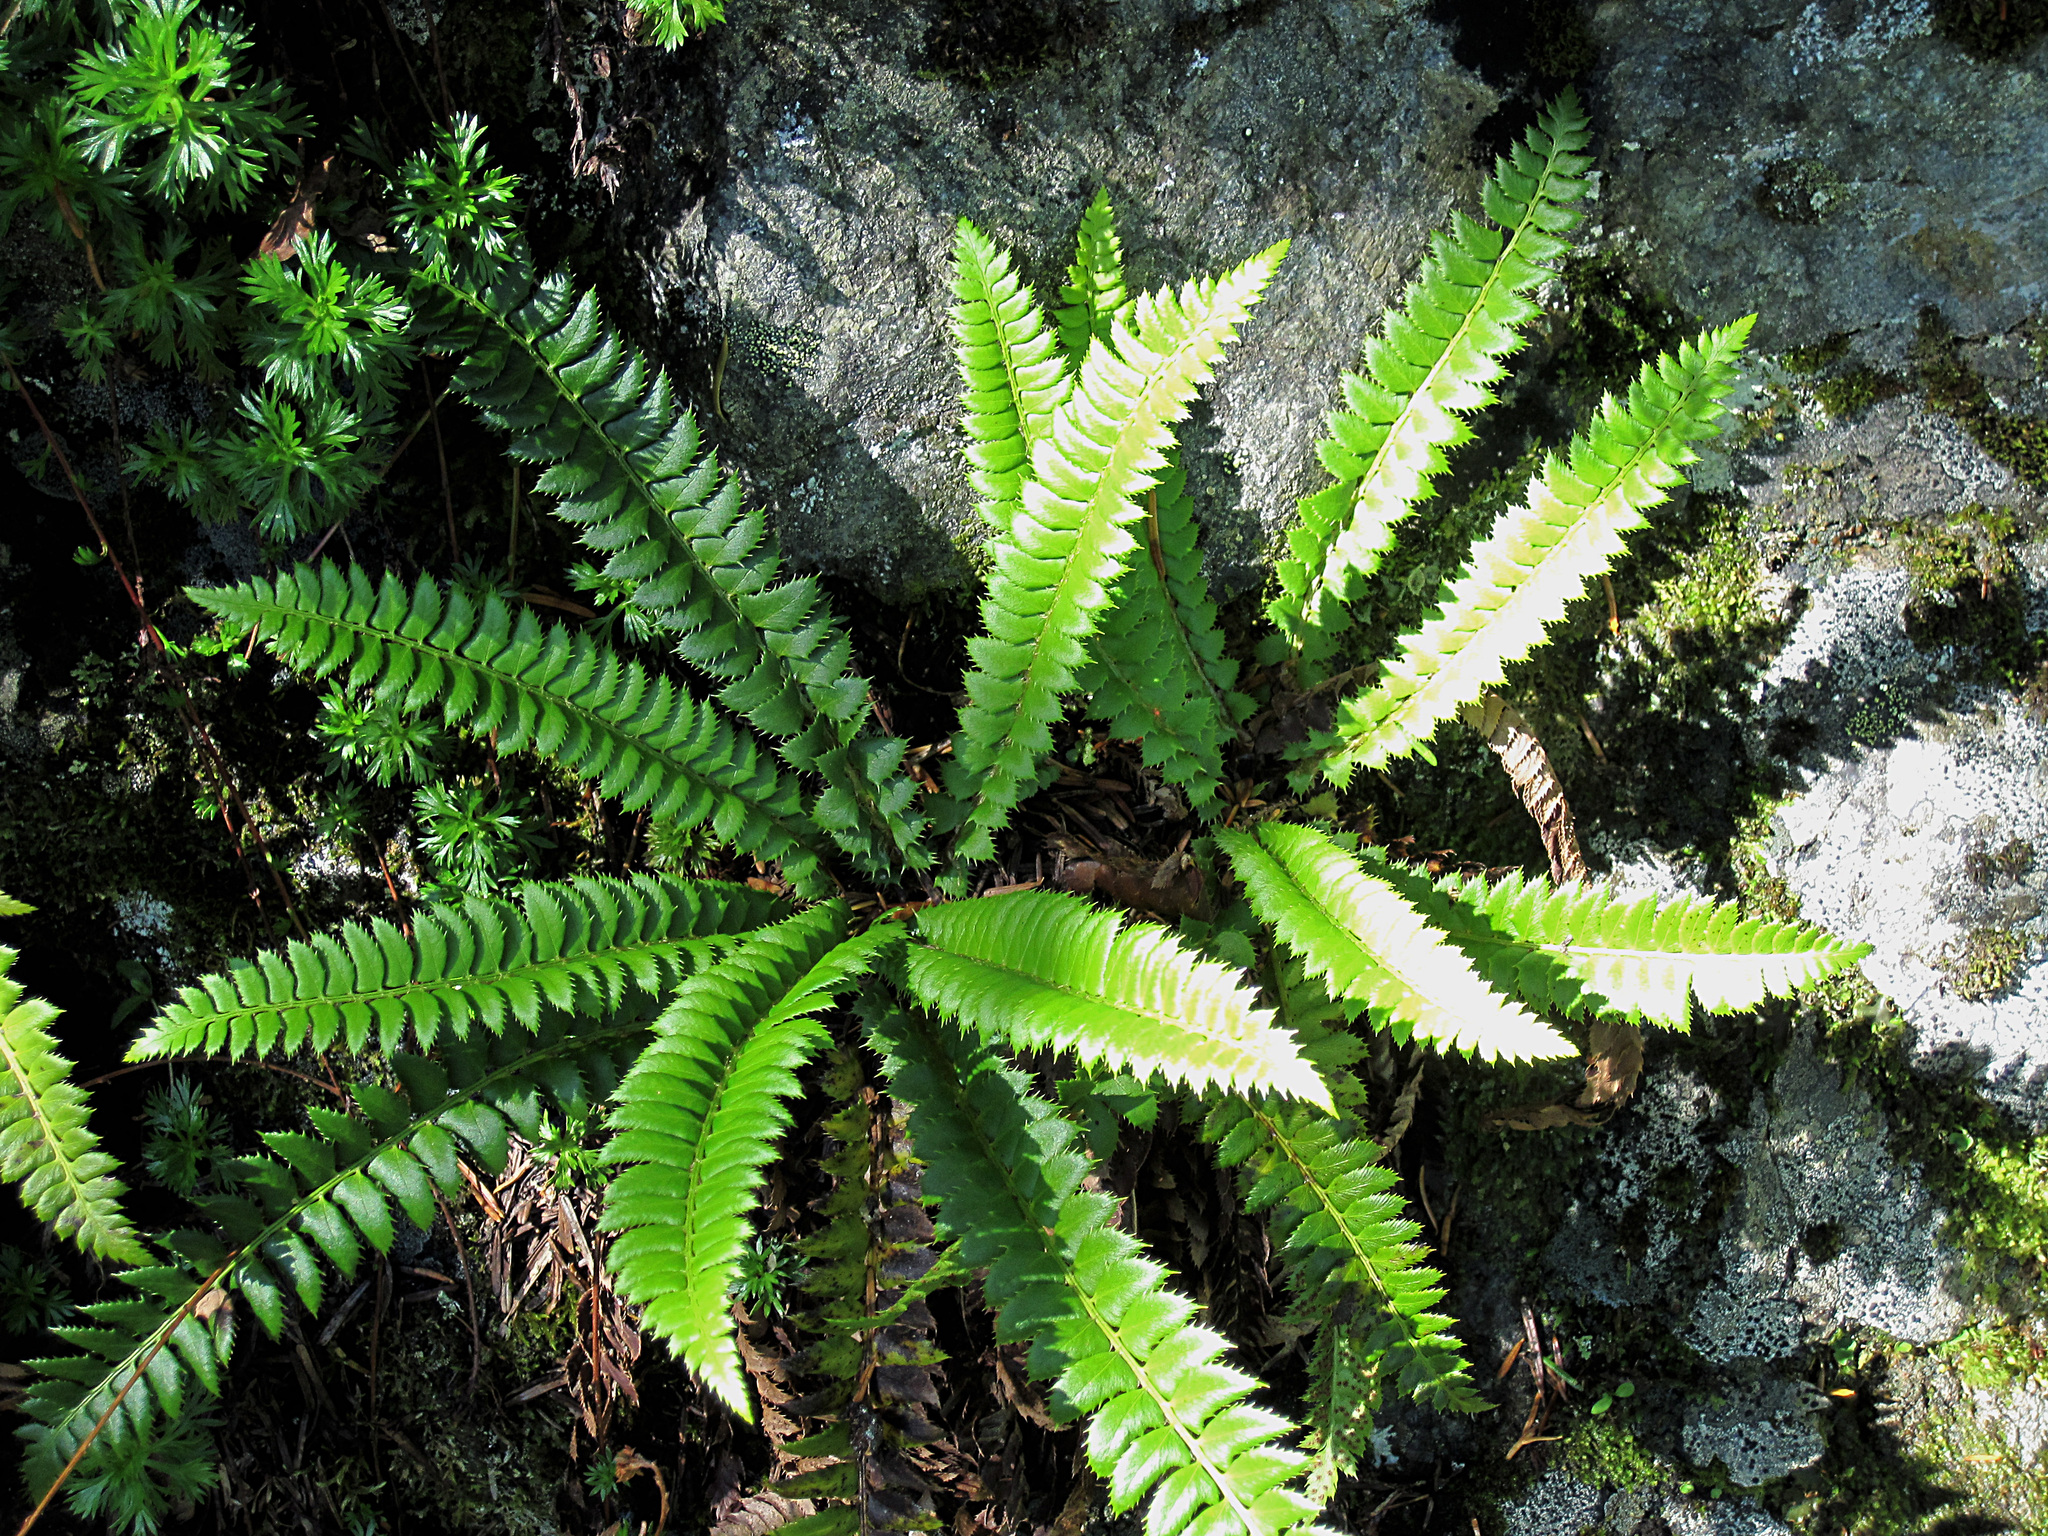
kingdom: Plantae
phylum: Tracheophyta
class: Polypodiopsida
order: Polypodiales
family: Dryopteridaceae
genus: Polystichum
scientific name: Polystichum lonchitis
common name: Holly fern
